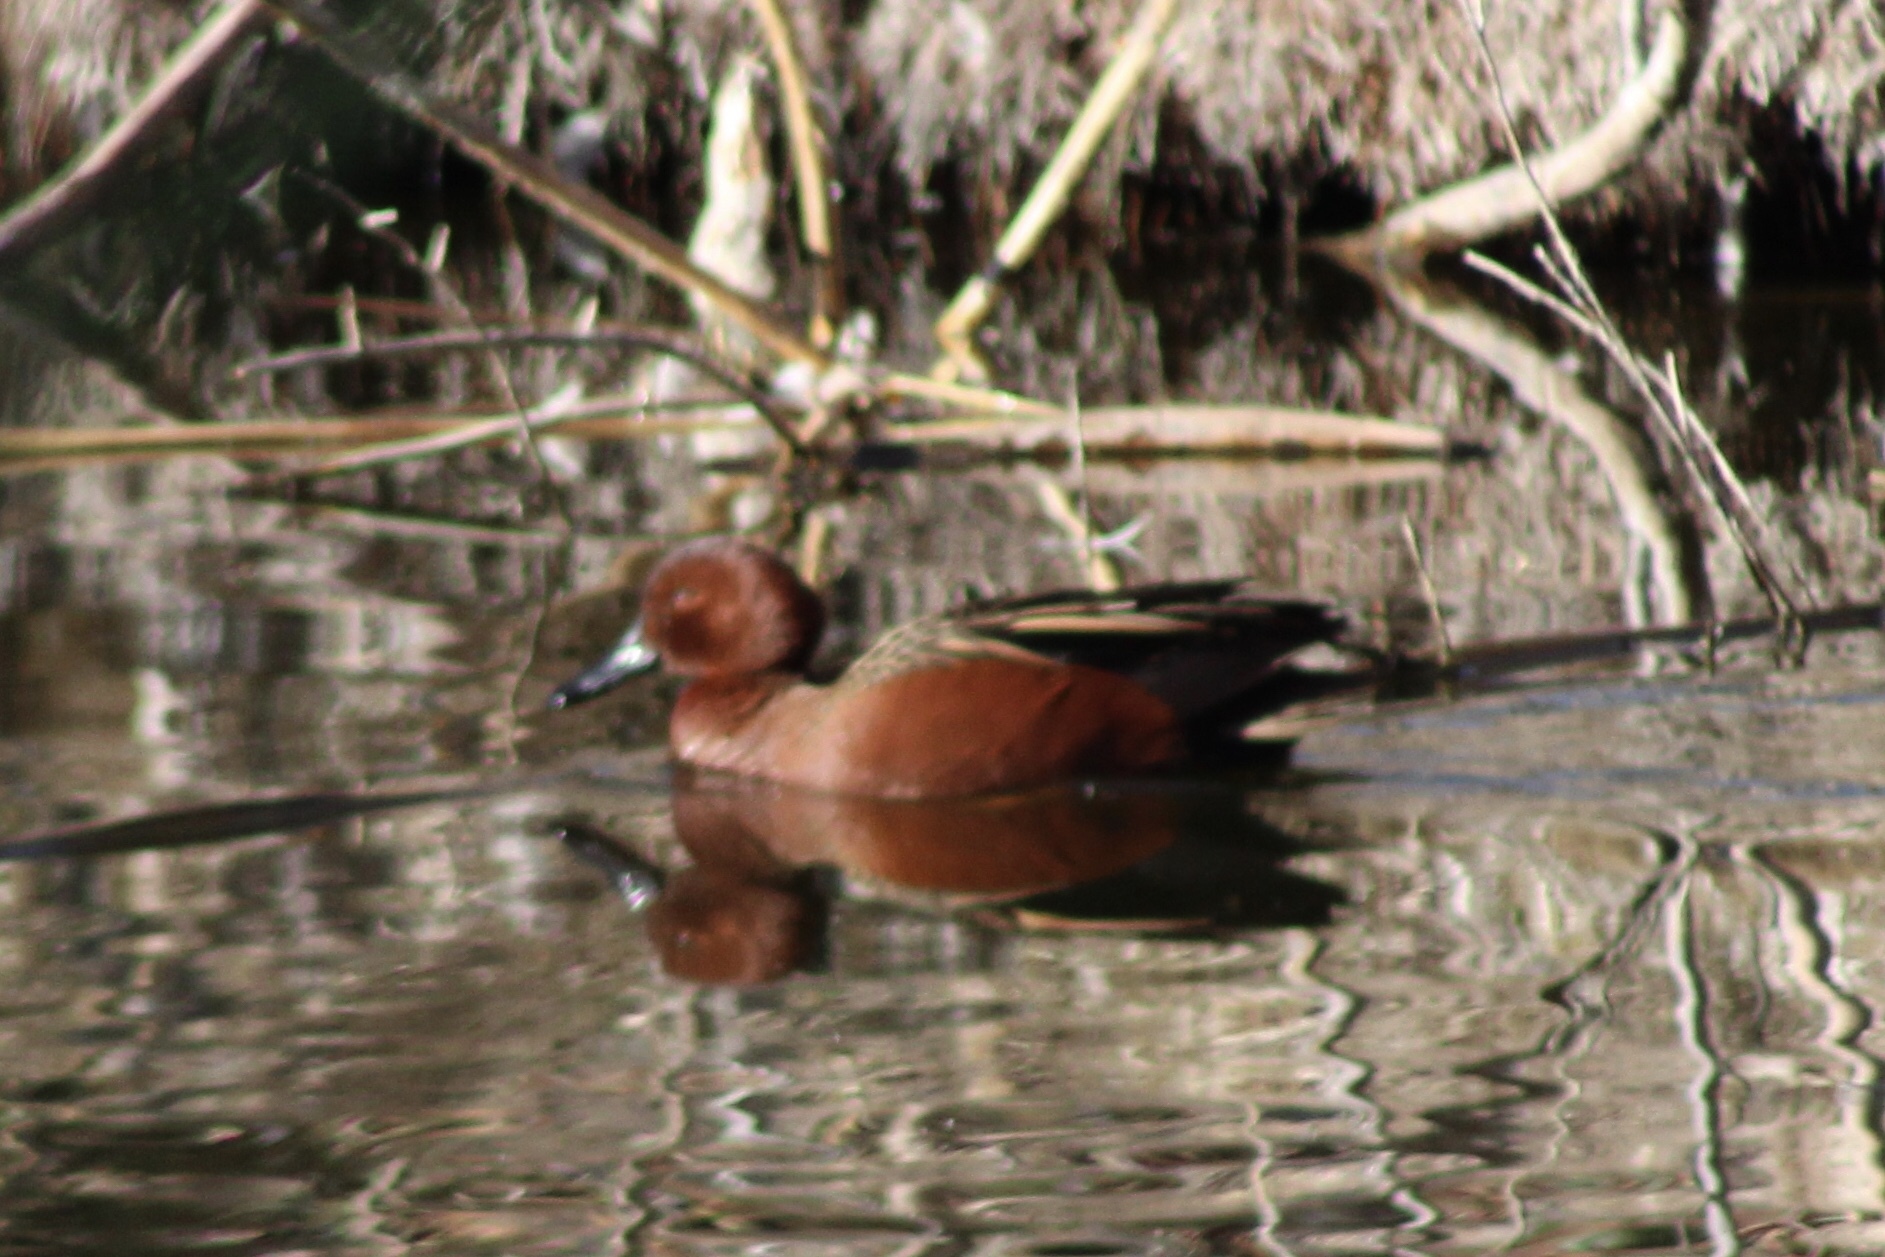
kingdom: Animalia
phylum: Chordata
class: Aves
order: Anseriformes
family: Anatidae
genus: Spatula
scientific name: Spatula cyanoptera
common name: Cinnamon teal
